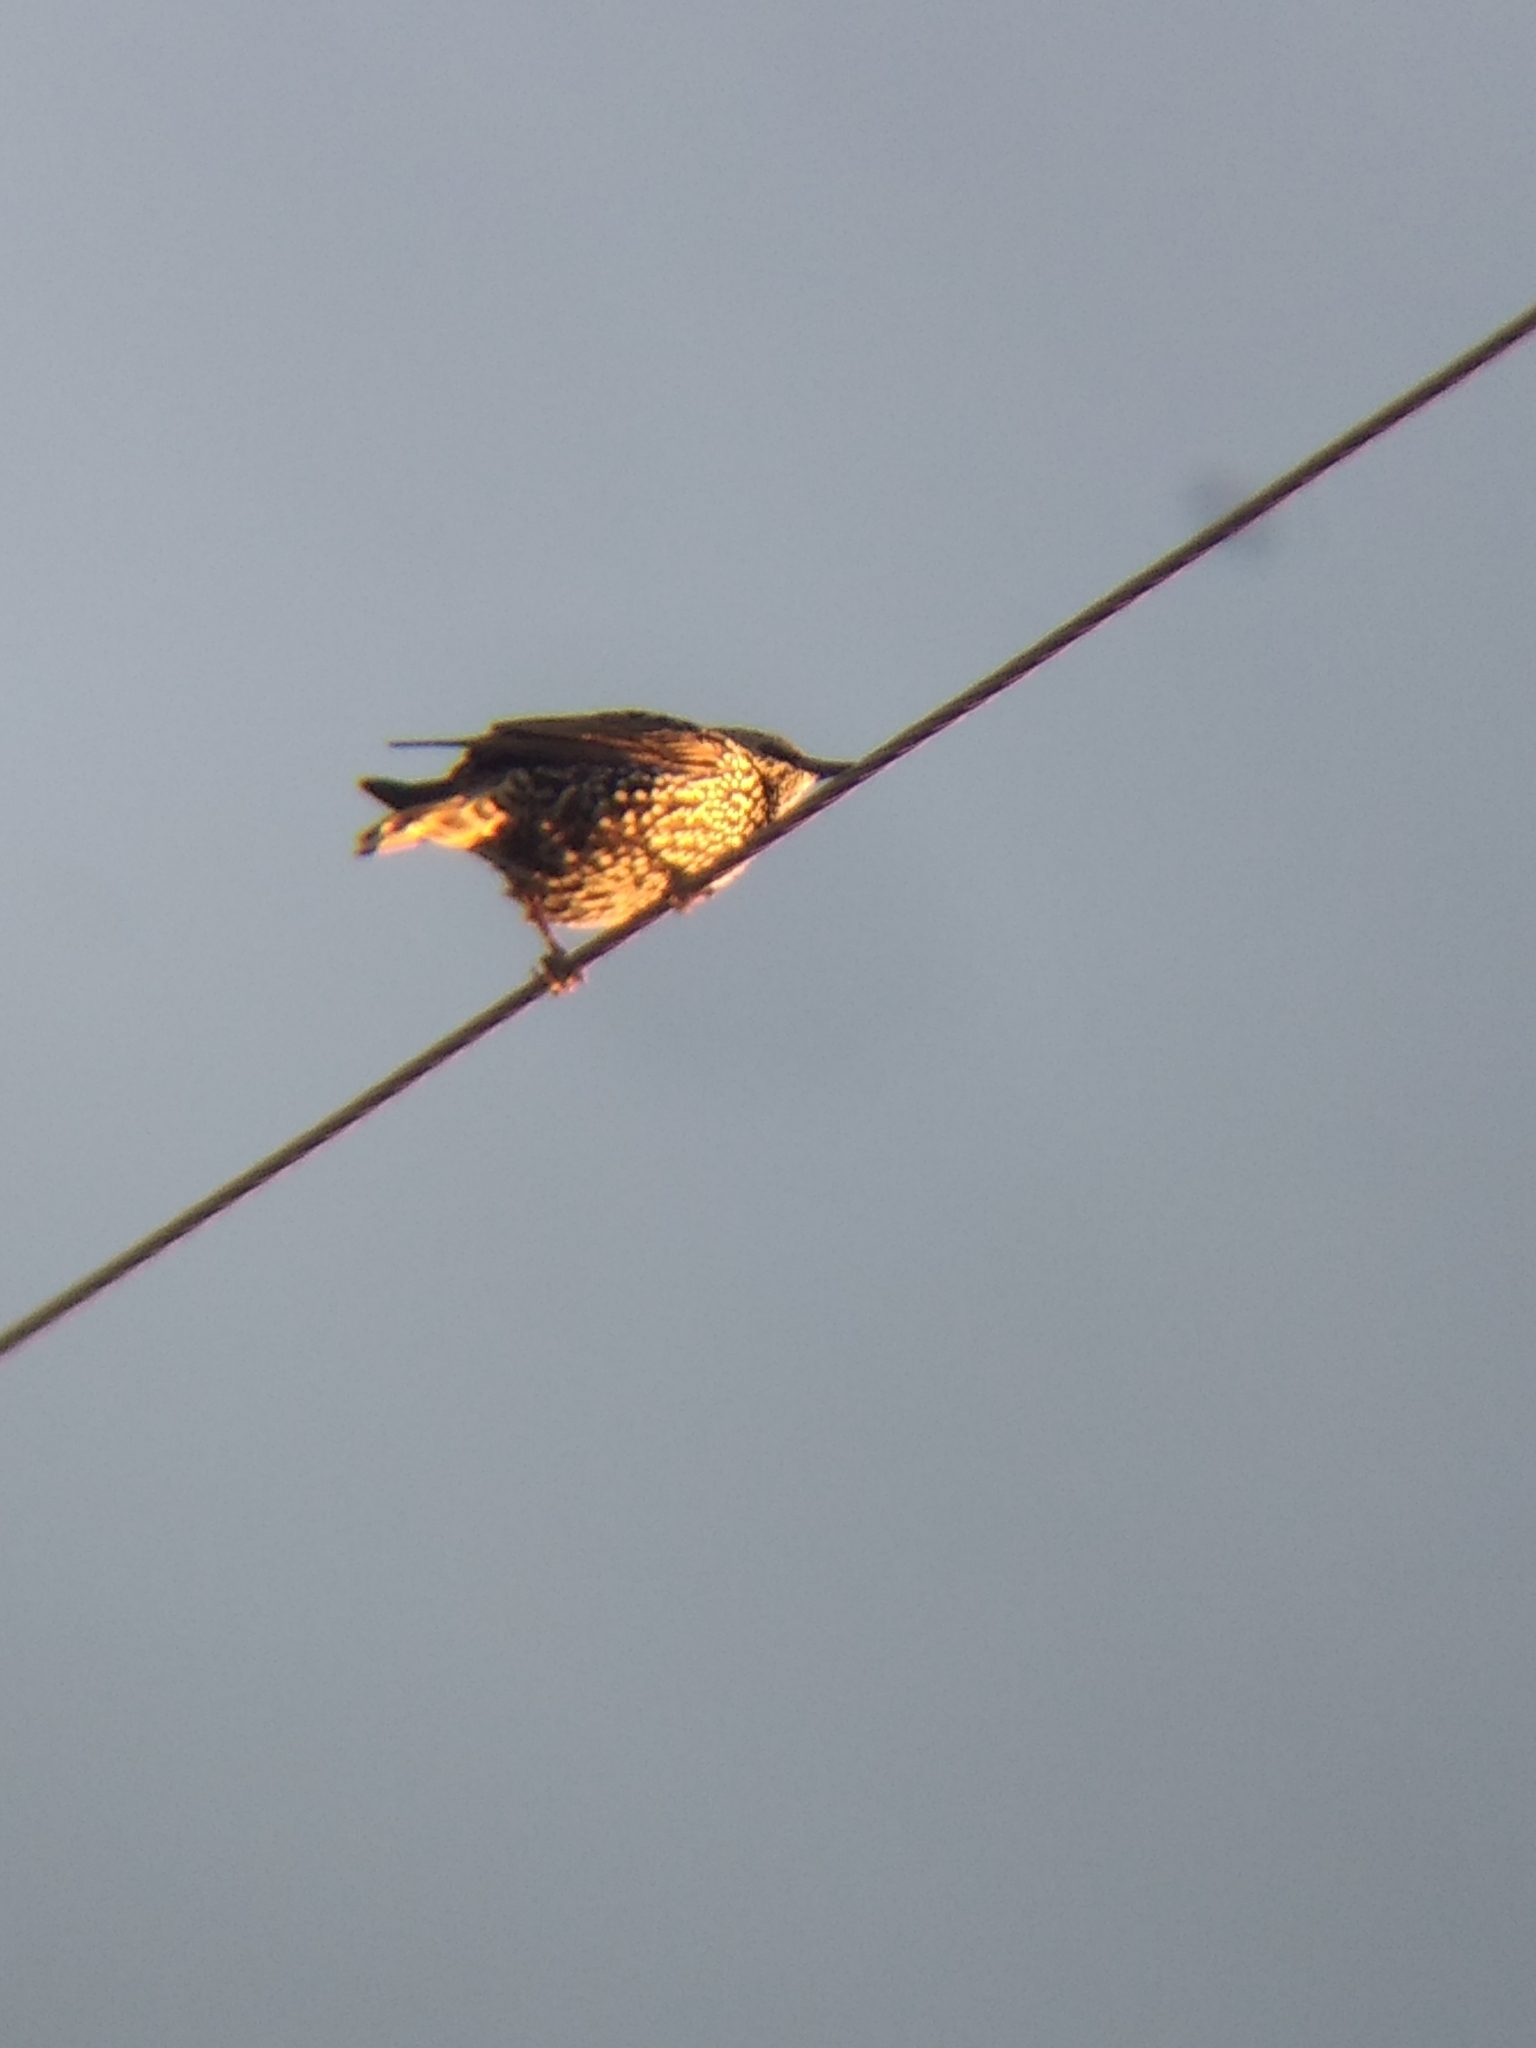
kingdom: Animalia
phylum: Chordata
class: Aves
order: Passeriformes
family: Sturnidae
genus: Sturnus
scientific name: Sturnus vulgaris
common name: Common starling
